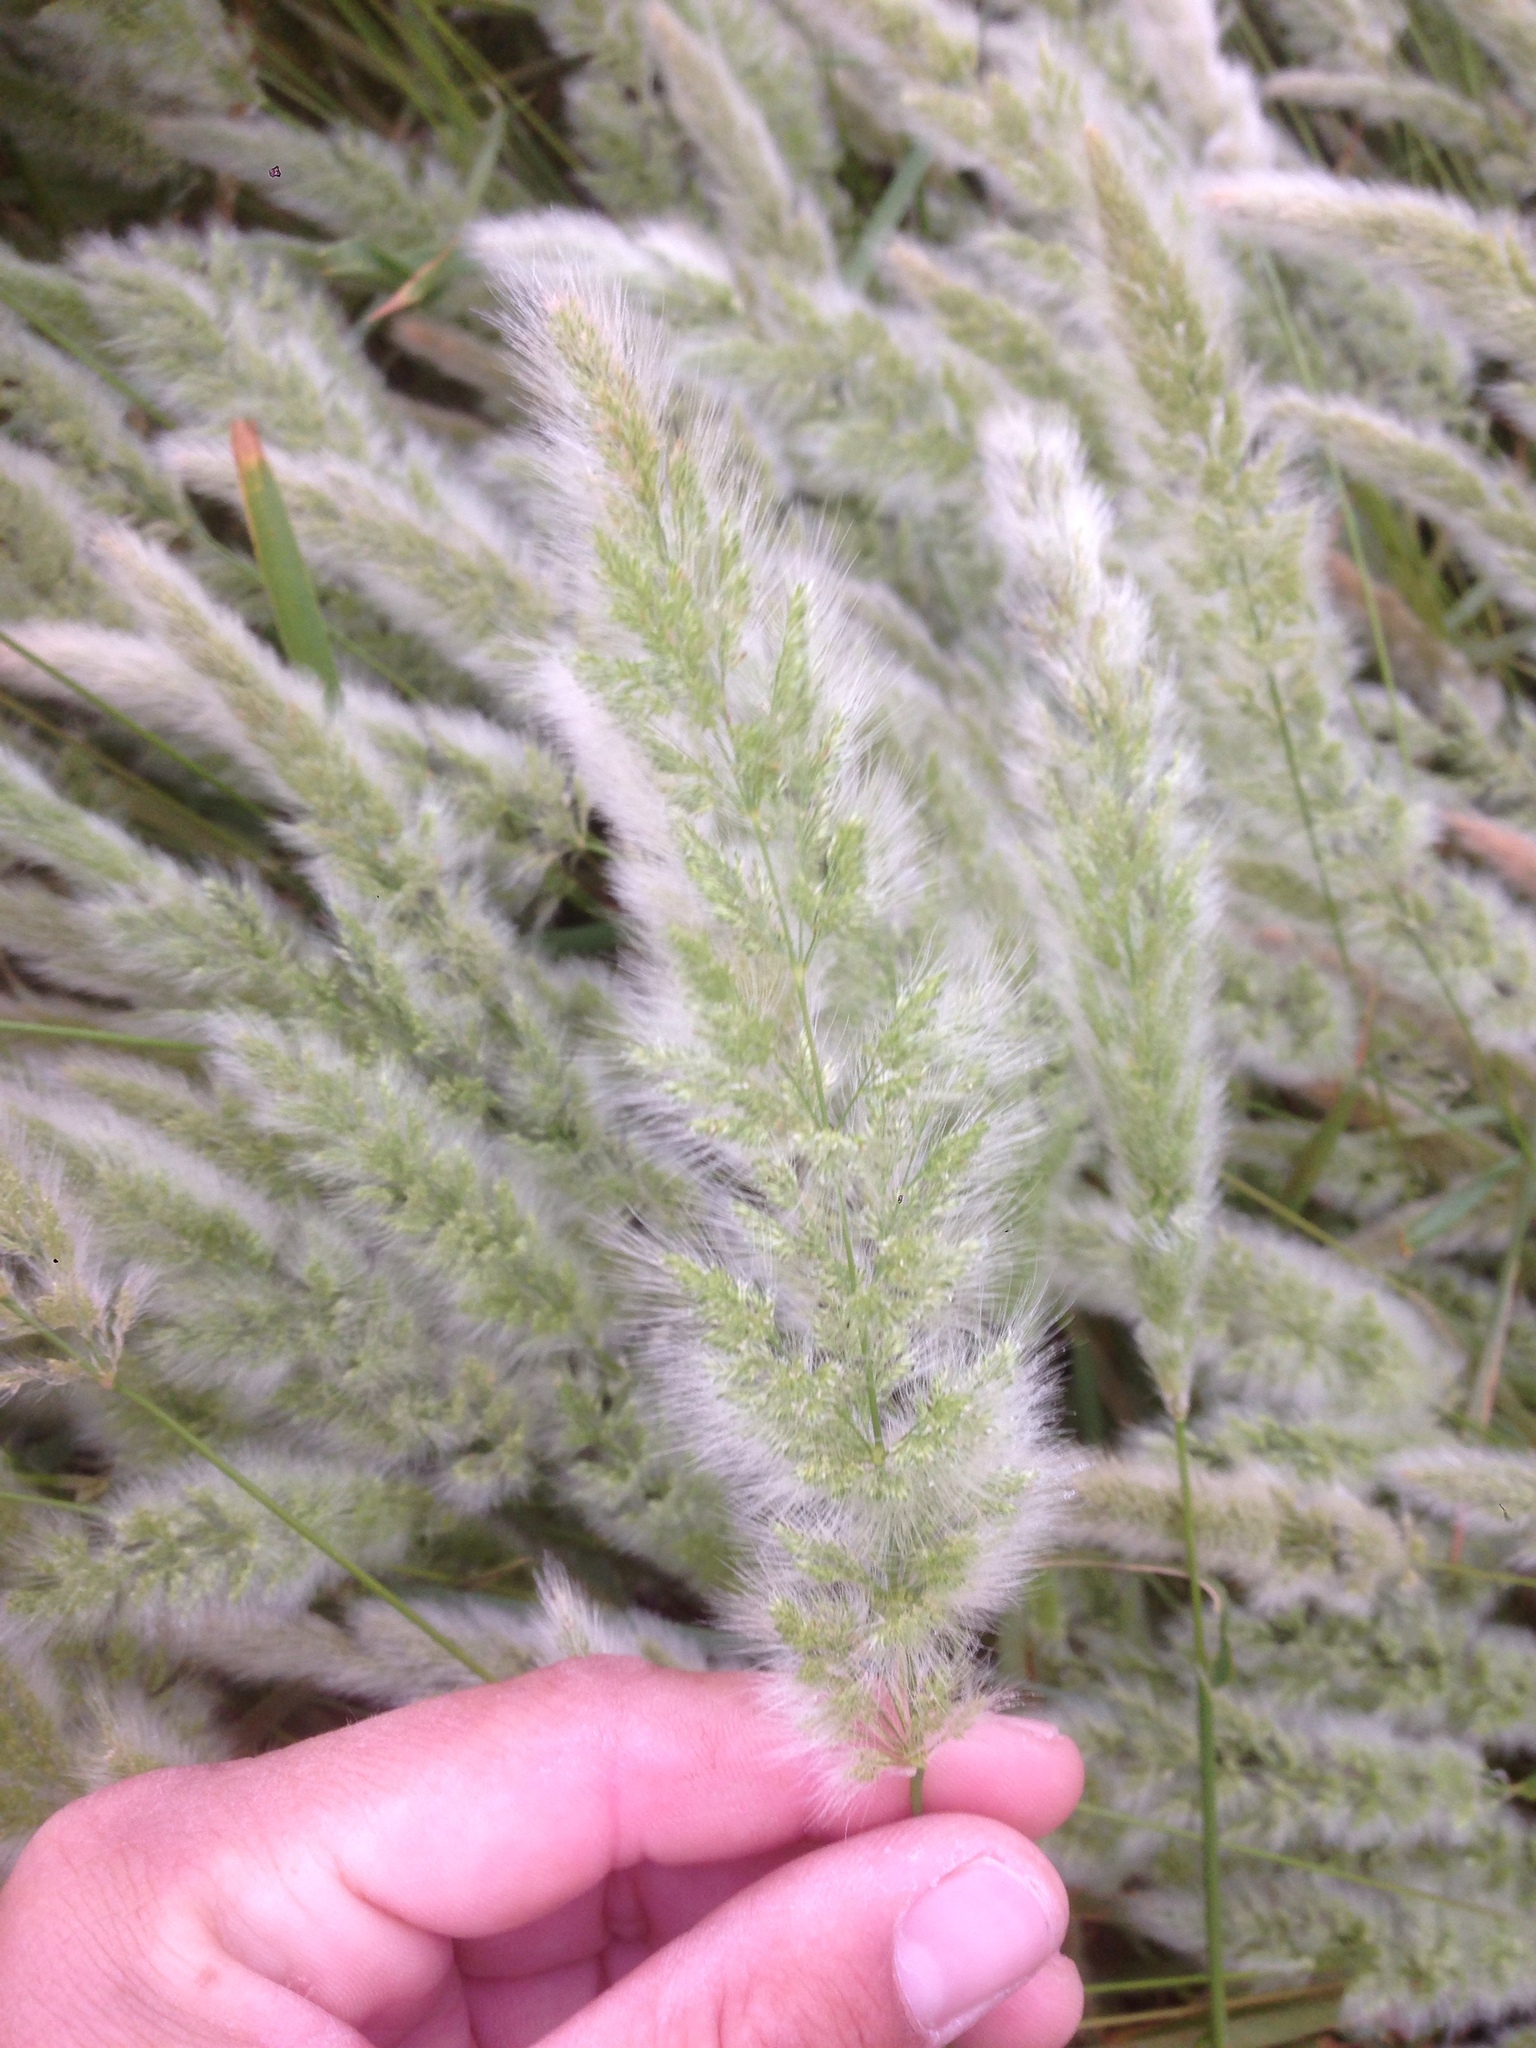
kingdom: Plantae
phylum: Tracheophyta
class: Liliopsida
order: Poales
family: Poaceae
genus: Polypogon
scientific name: Polypogon monspeliensis
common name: Annual rabbitsfoot grass
